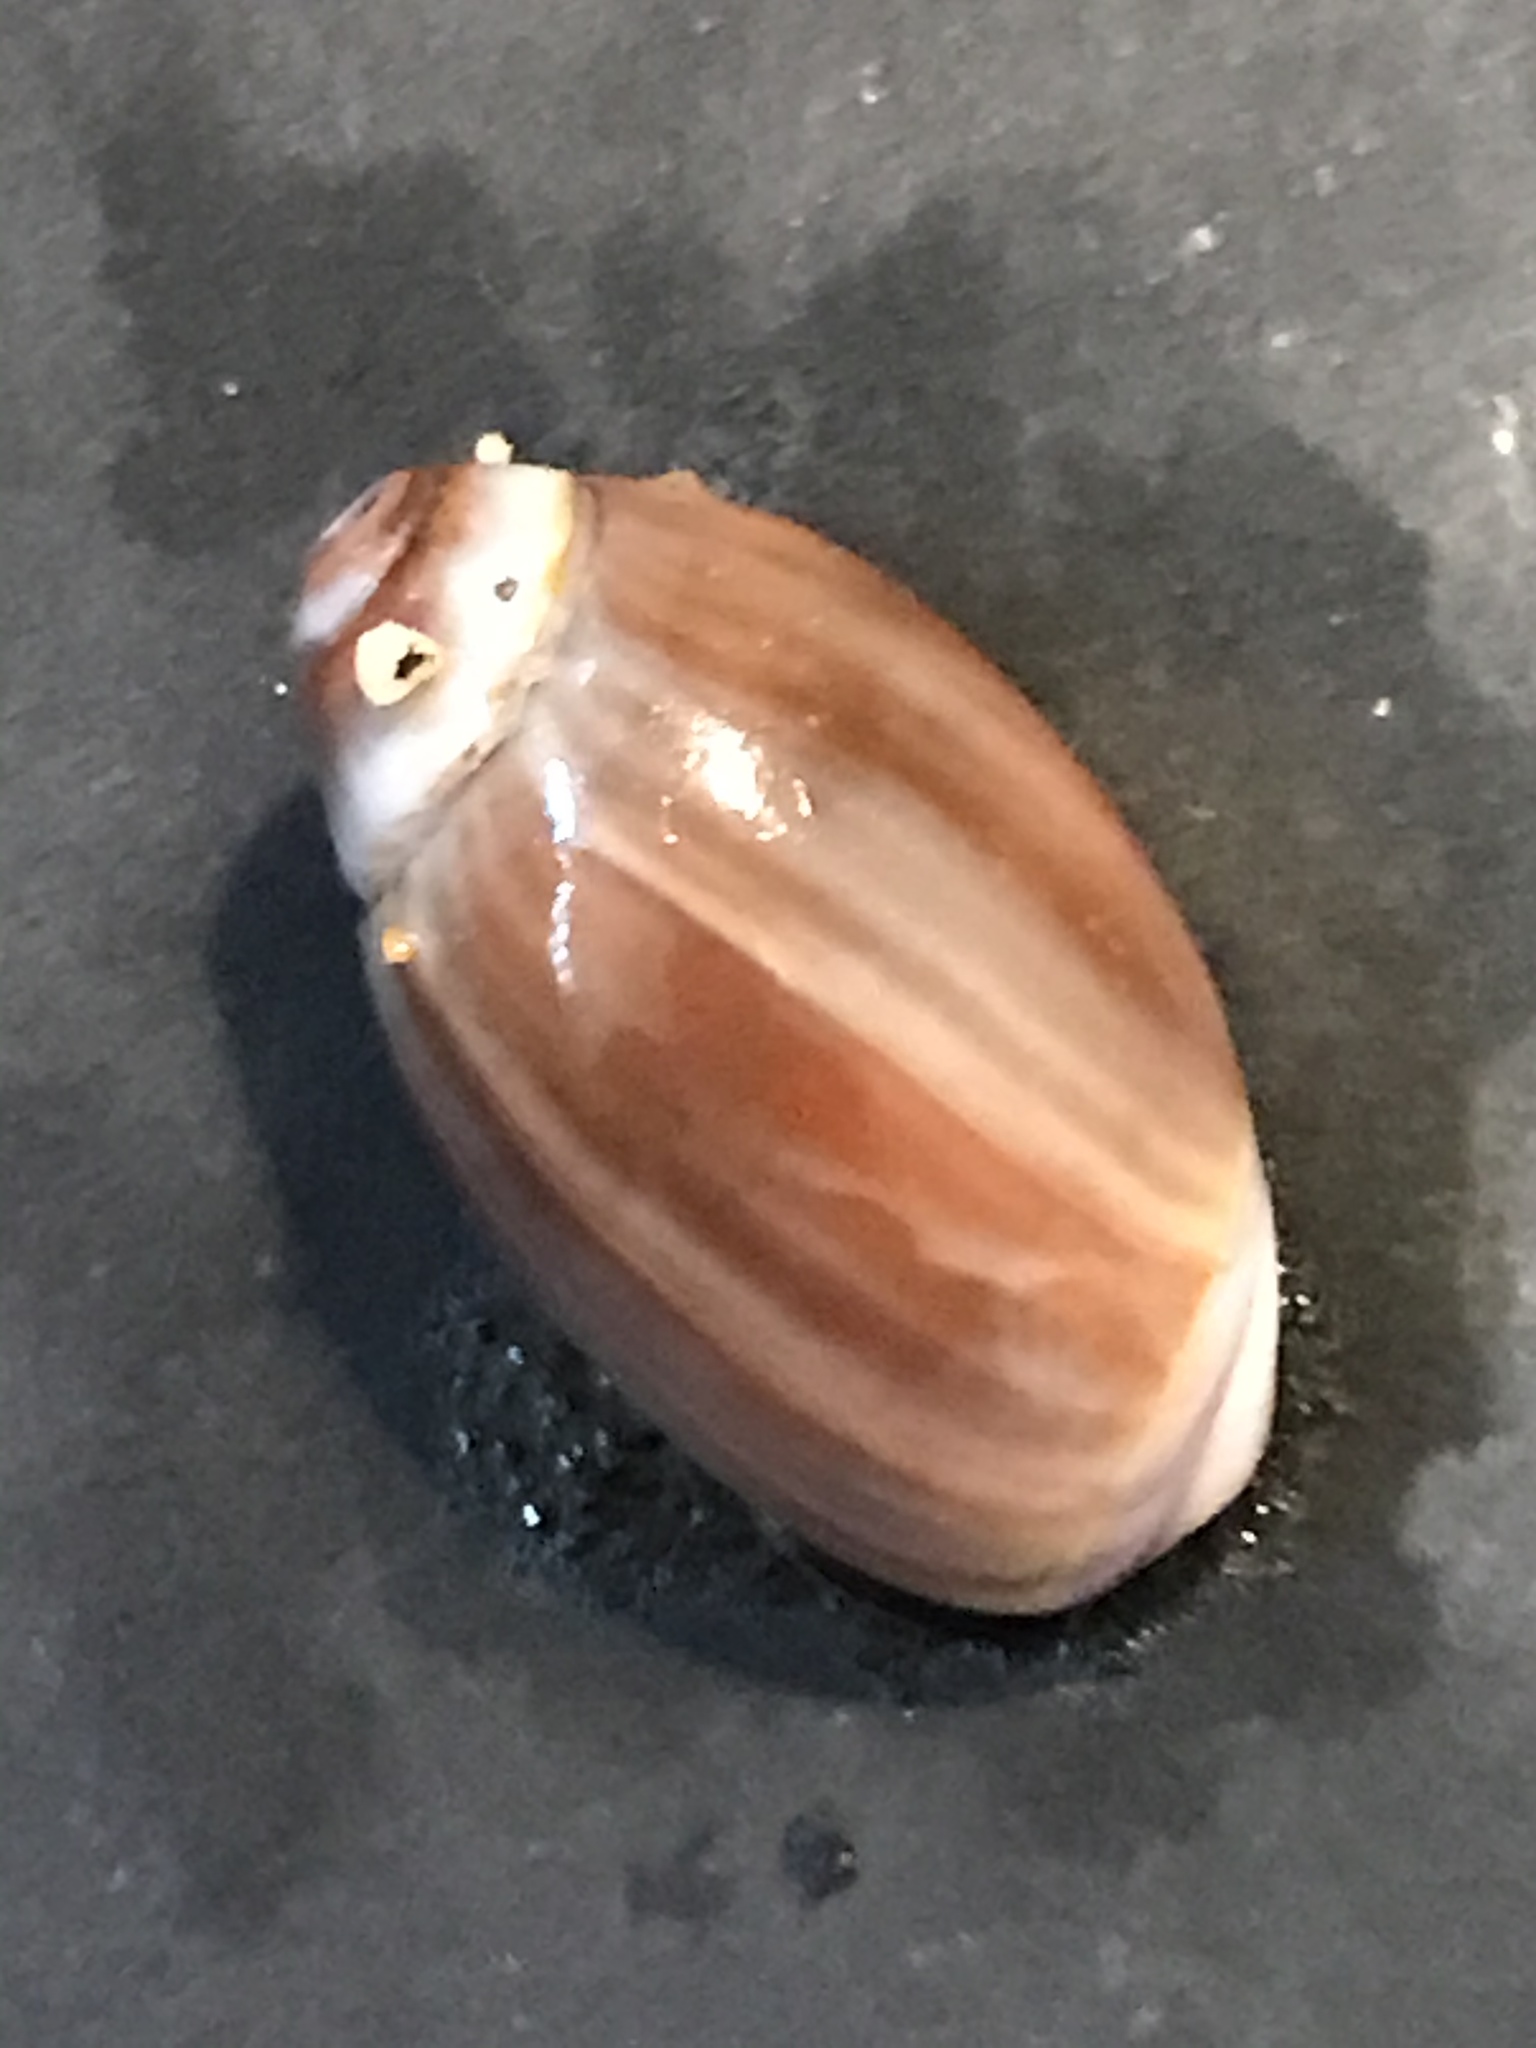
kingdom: Animalia
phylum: Mollusca
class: Gastropoda
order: Neogastropoda
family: Olividae
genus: Callianax
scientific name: Callianax biplicata
